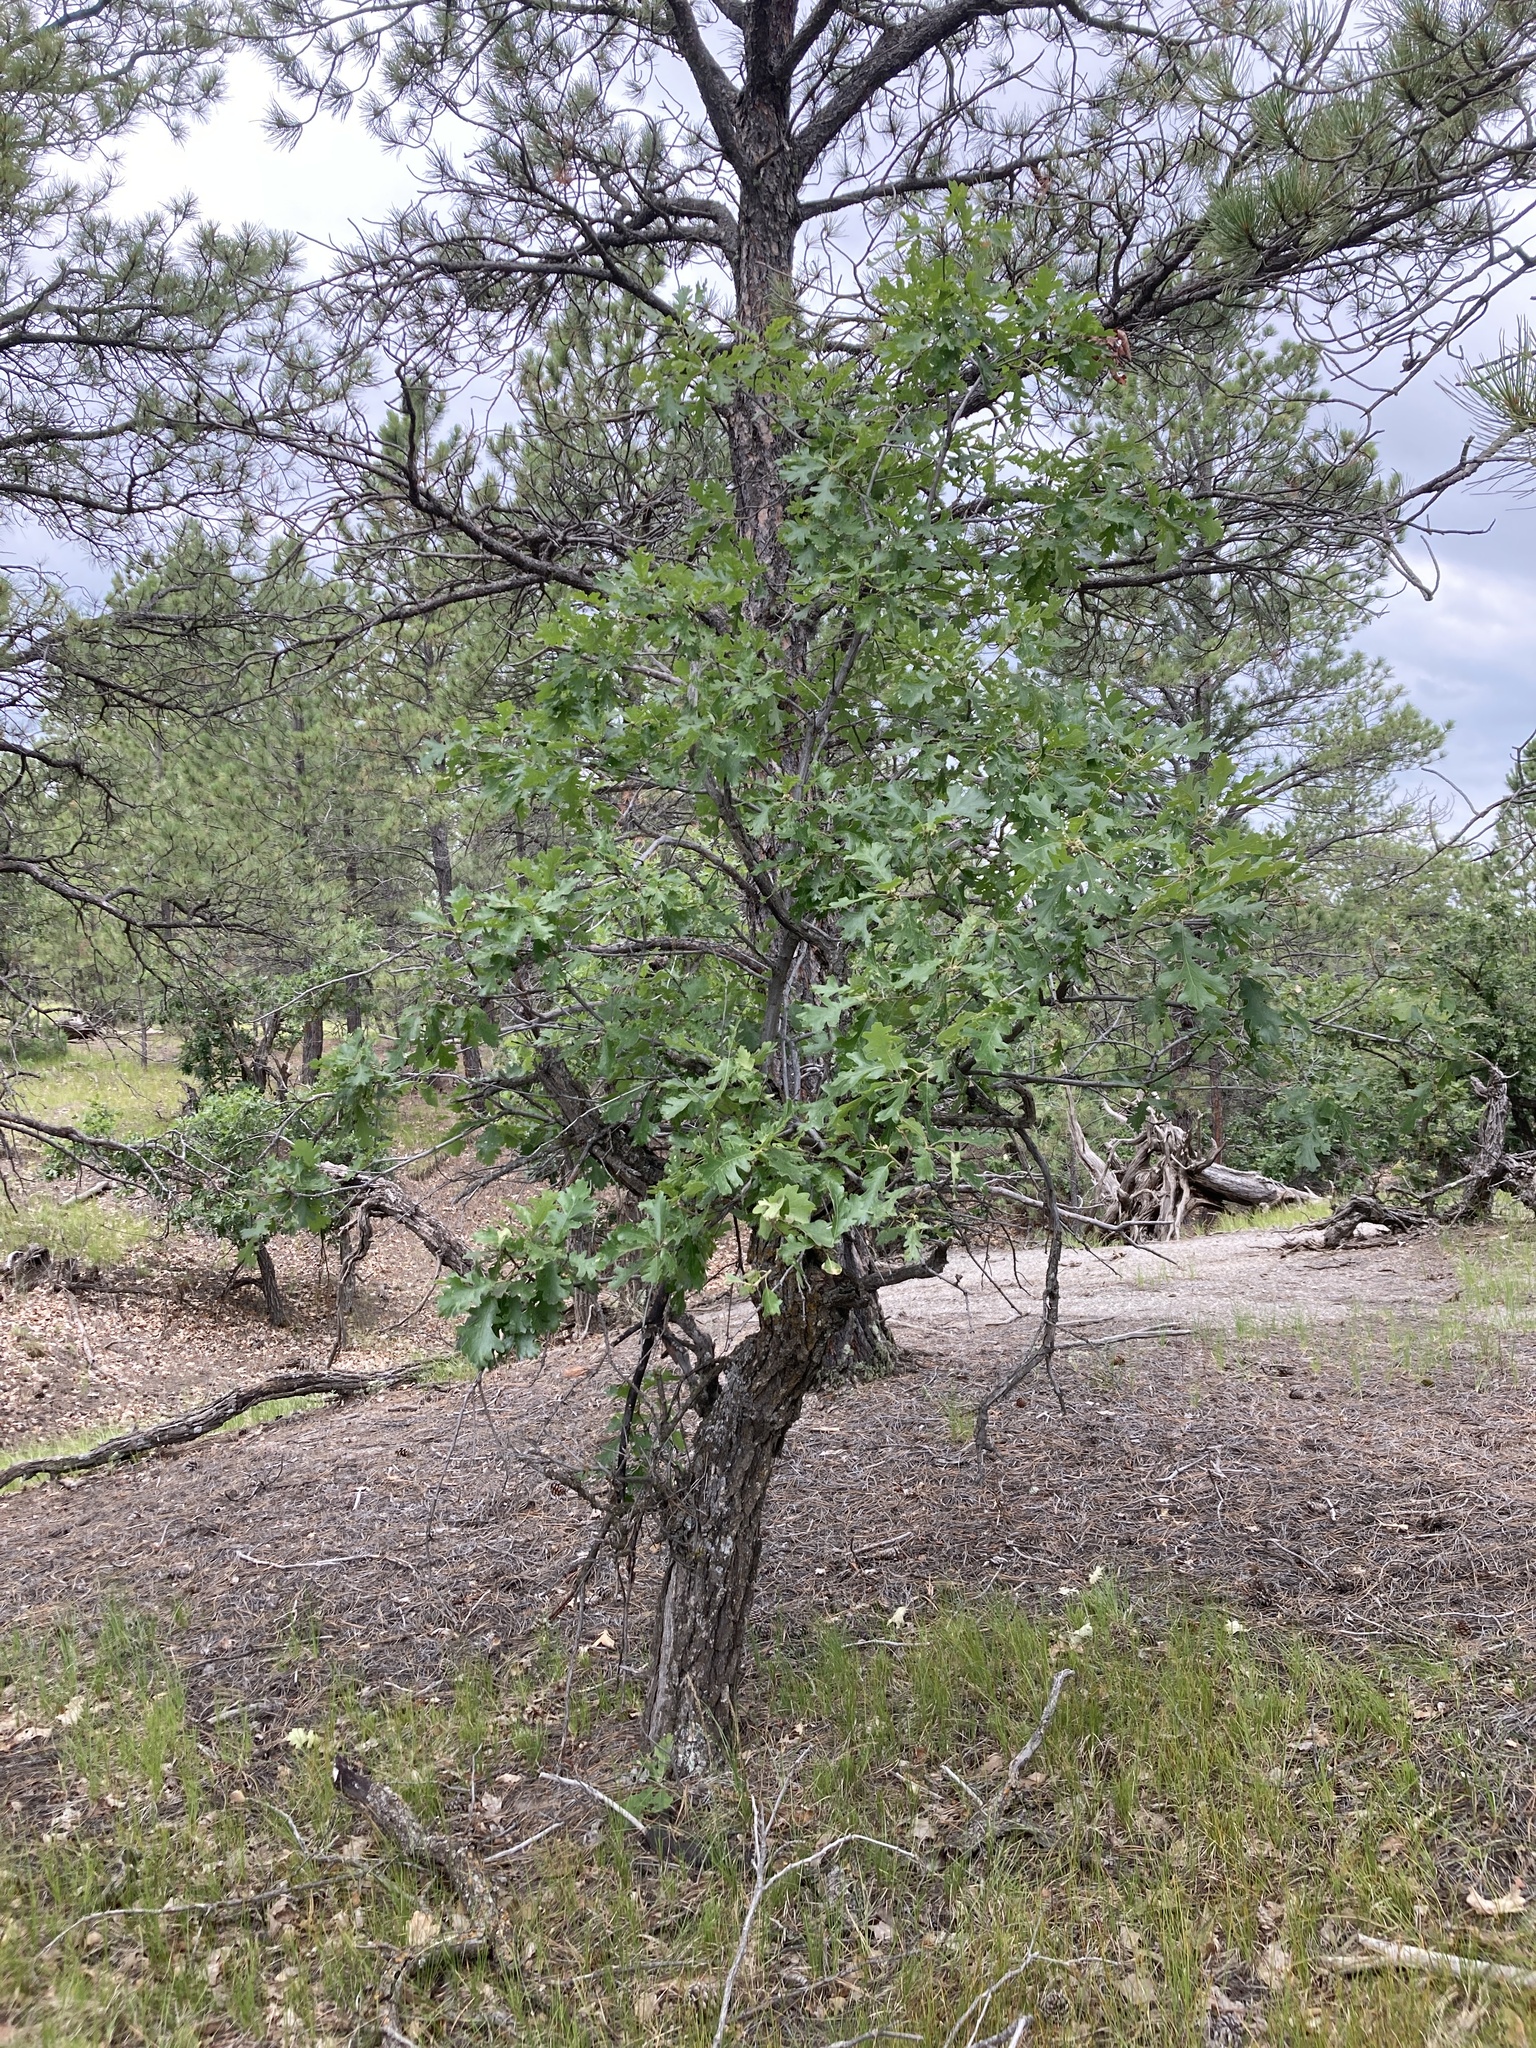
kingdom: Plantae
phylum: Tracheophyta
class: Magnoliopsida
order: Fagales
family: Fagaceae
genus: Quercus
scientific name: Quercus macrocarpa
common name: Bur oak
